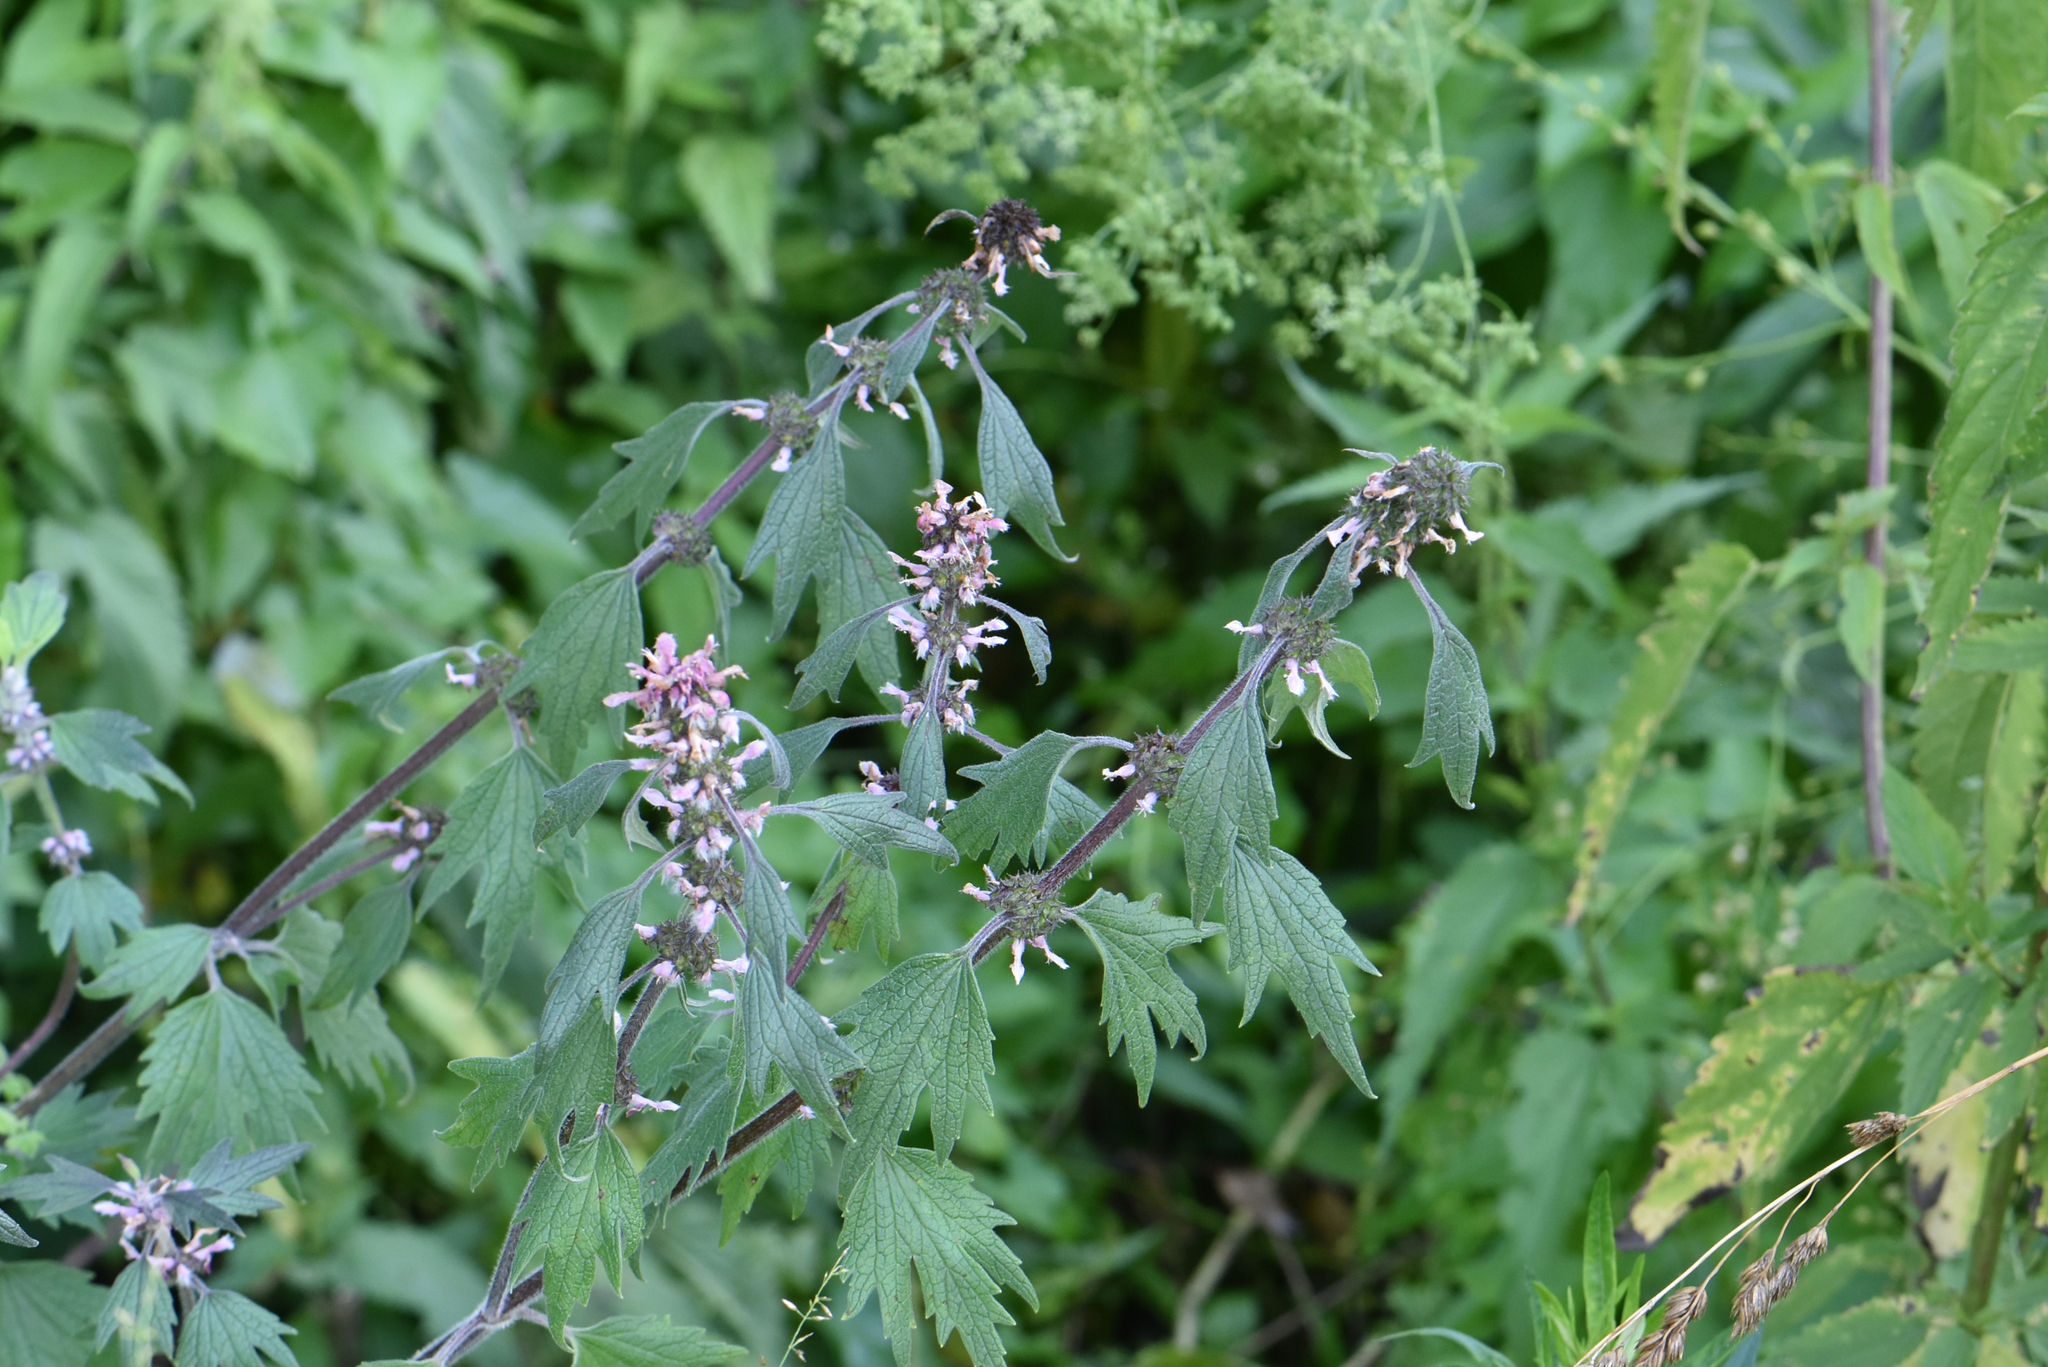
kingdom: Plantae
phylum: Tracheophyta
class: Magnoliopsida
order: Lamiales
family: Lamiaceae
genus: Leonurus
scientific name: Leonurus quinquelobatus
